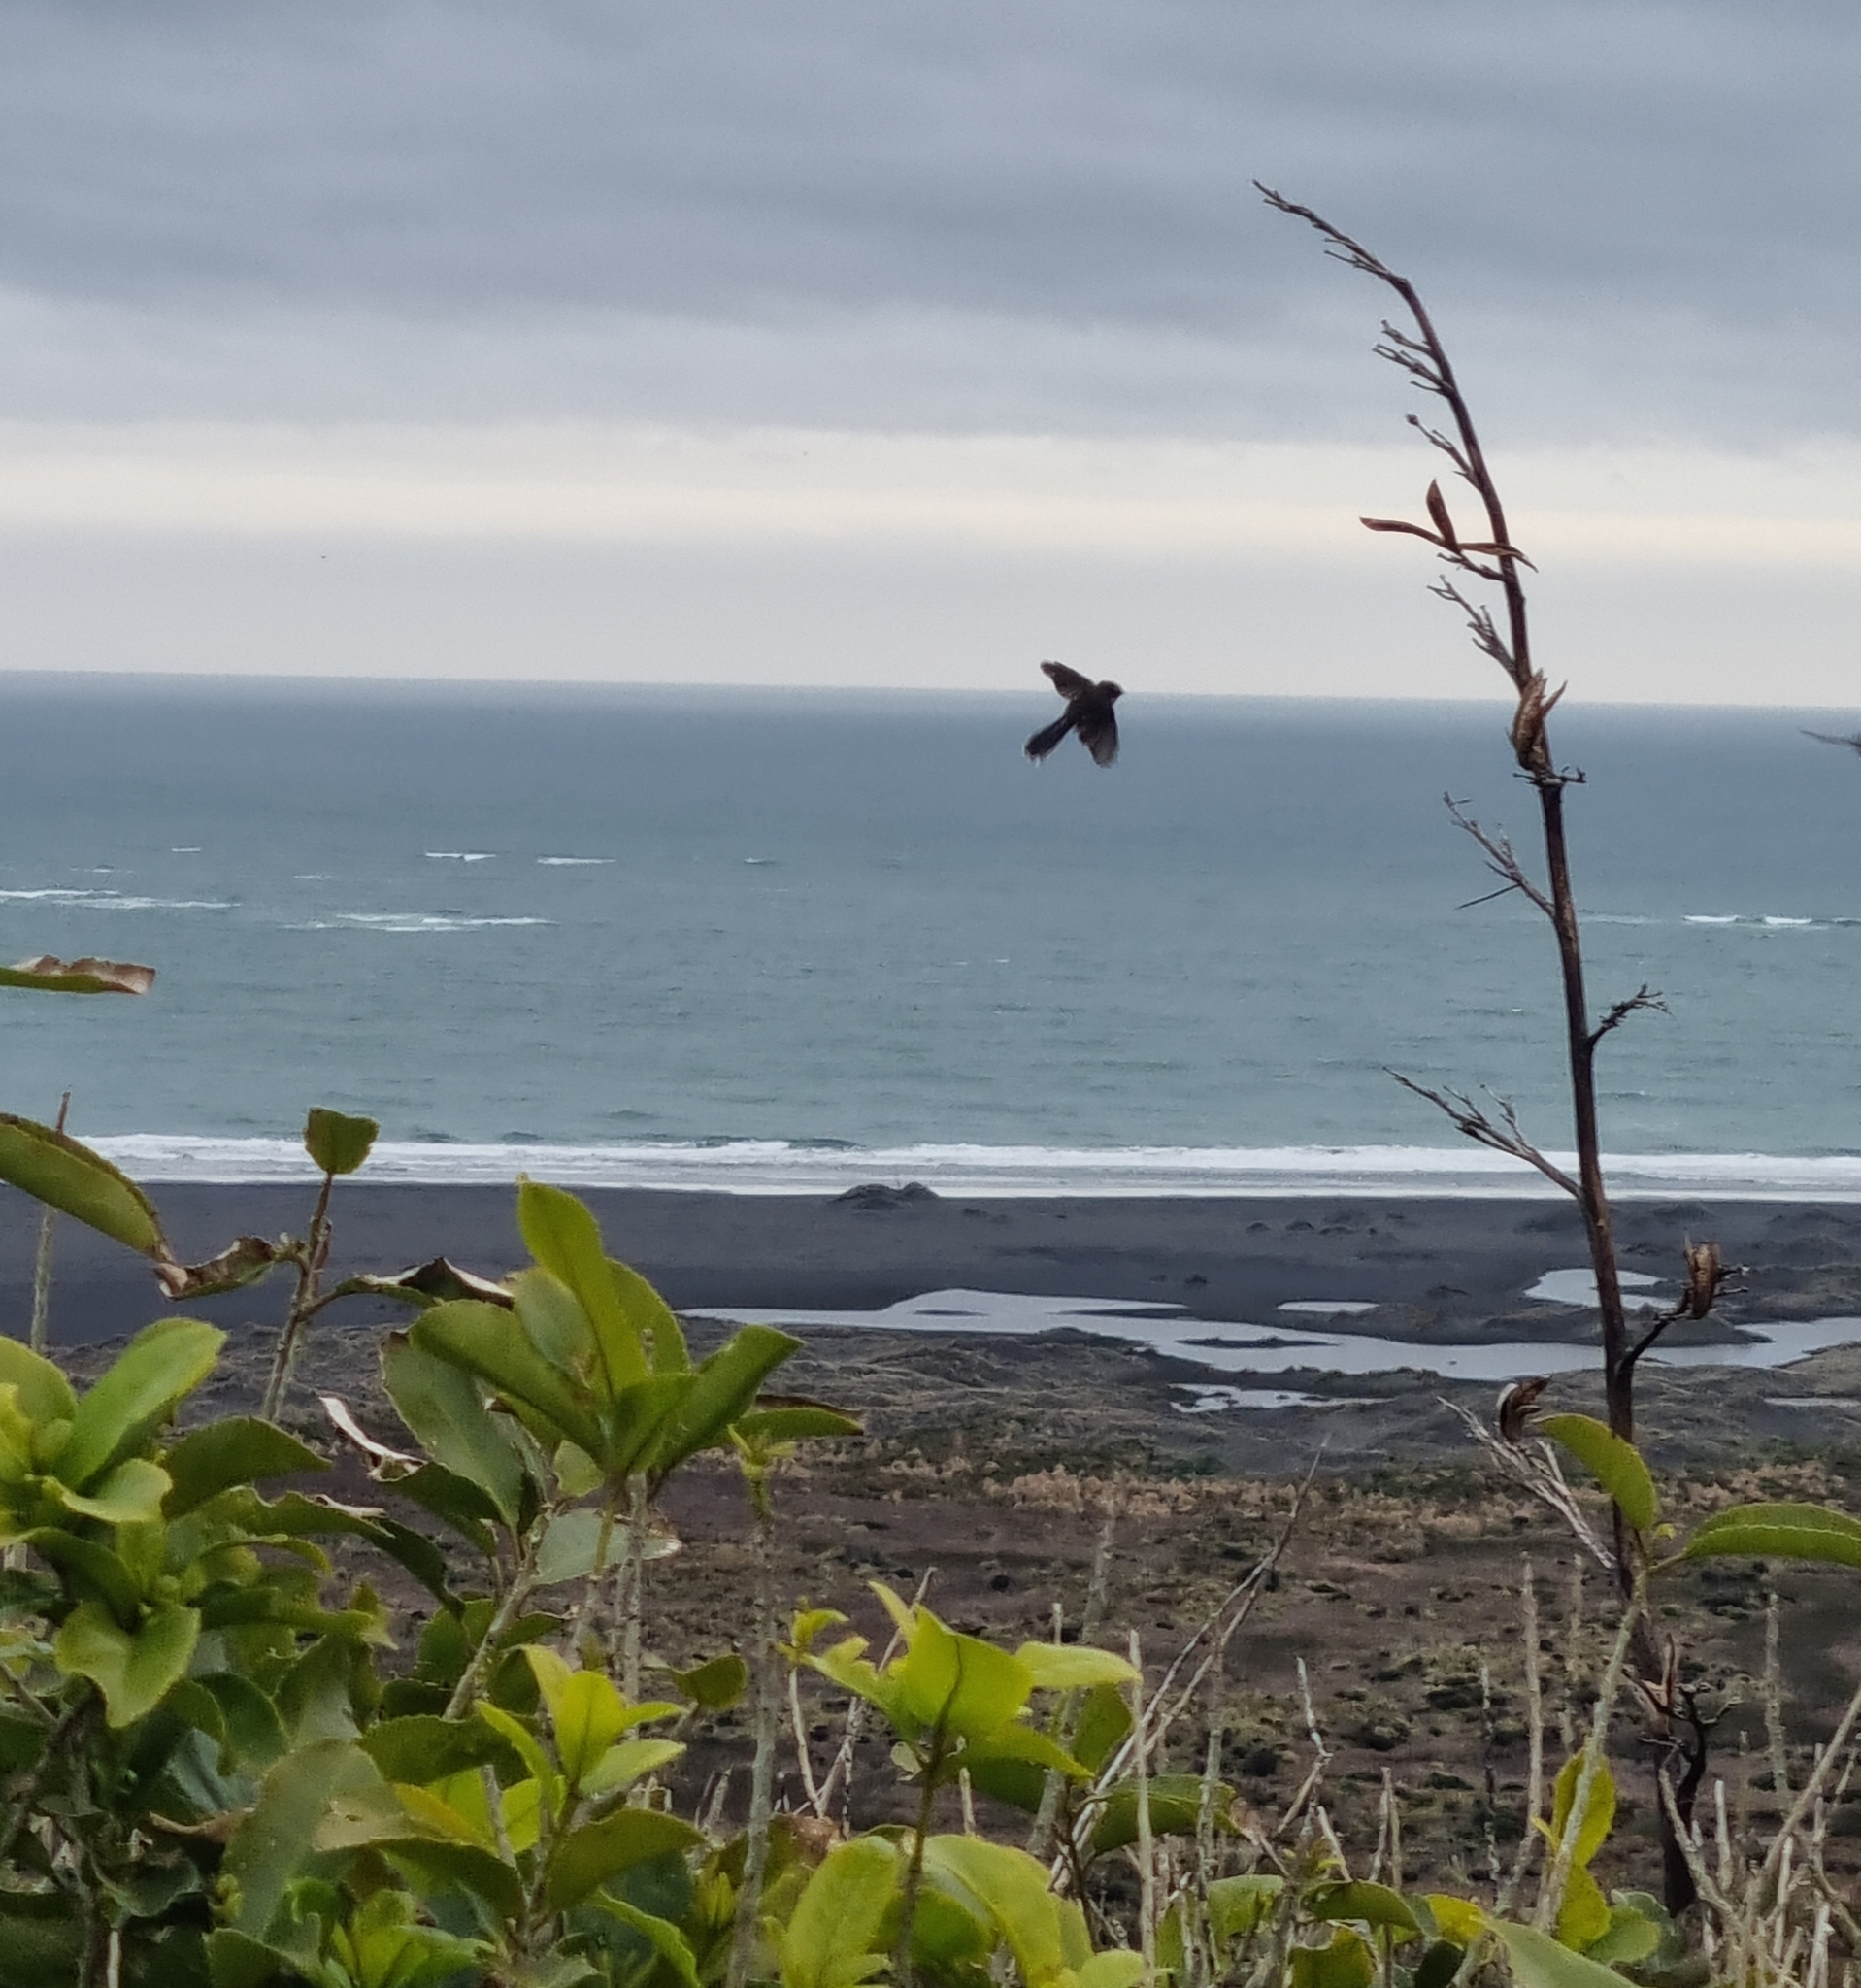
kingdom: Animalia
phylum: Chordata
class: Aves
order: Passeriformes
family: Rhipiduridae
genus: Rhipidura
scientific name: Rhipidura fuliginosa
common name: New zealand fantail
